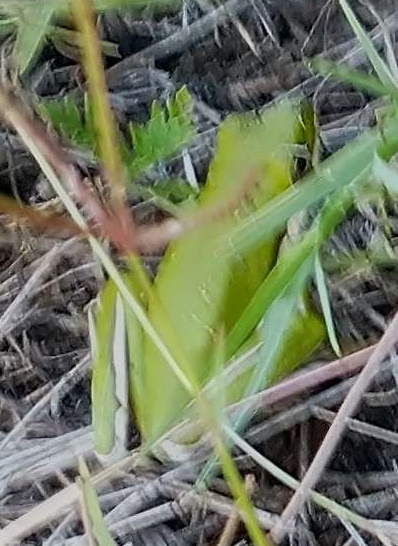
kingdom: Animalia
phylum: Chordata
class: Amphibia
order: Anura
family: Hylidae
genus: Dryophytes
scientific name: Dryophytes cinereus
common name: Green treefrog
